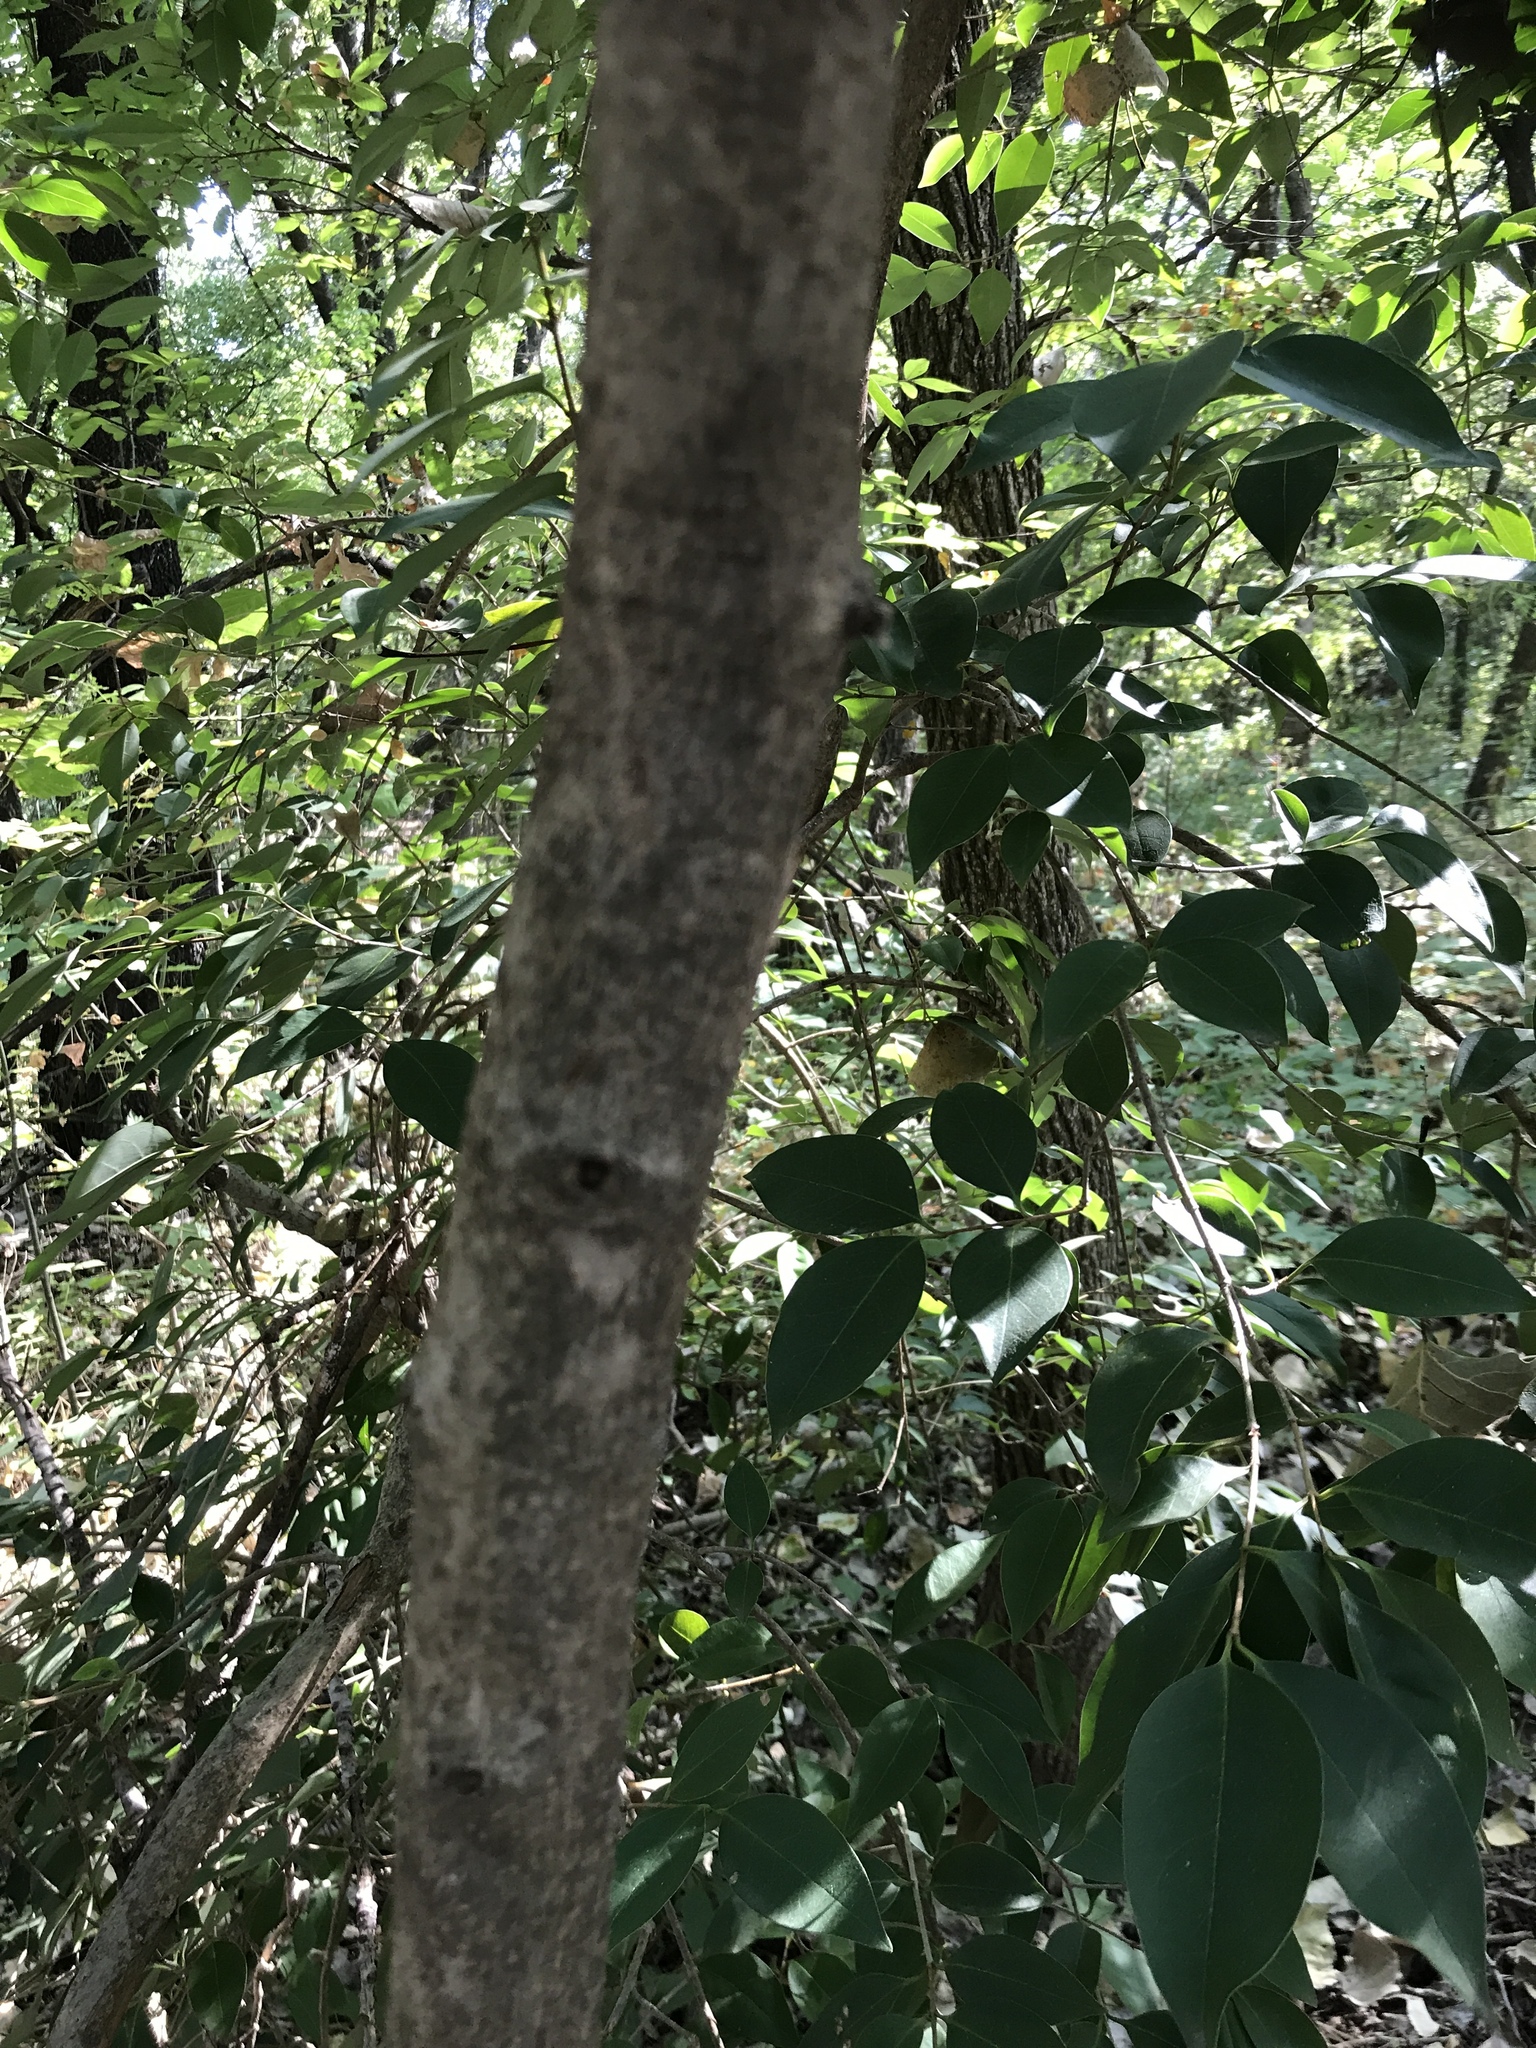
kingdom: Plantae
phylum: Tracheophyta
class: Magnoliopsida
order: Lamiales
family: Oleaceae
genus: Ligustrum
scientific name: Ligustrum lucidum
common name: Glossy privet
